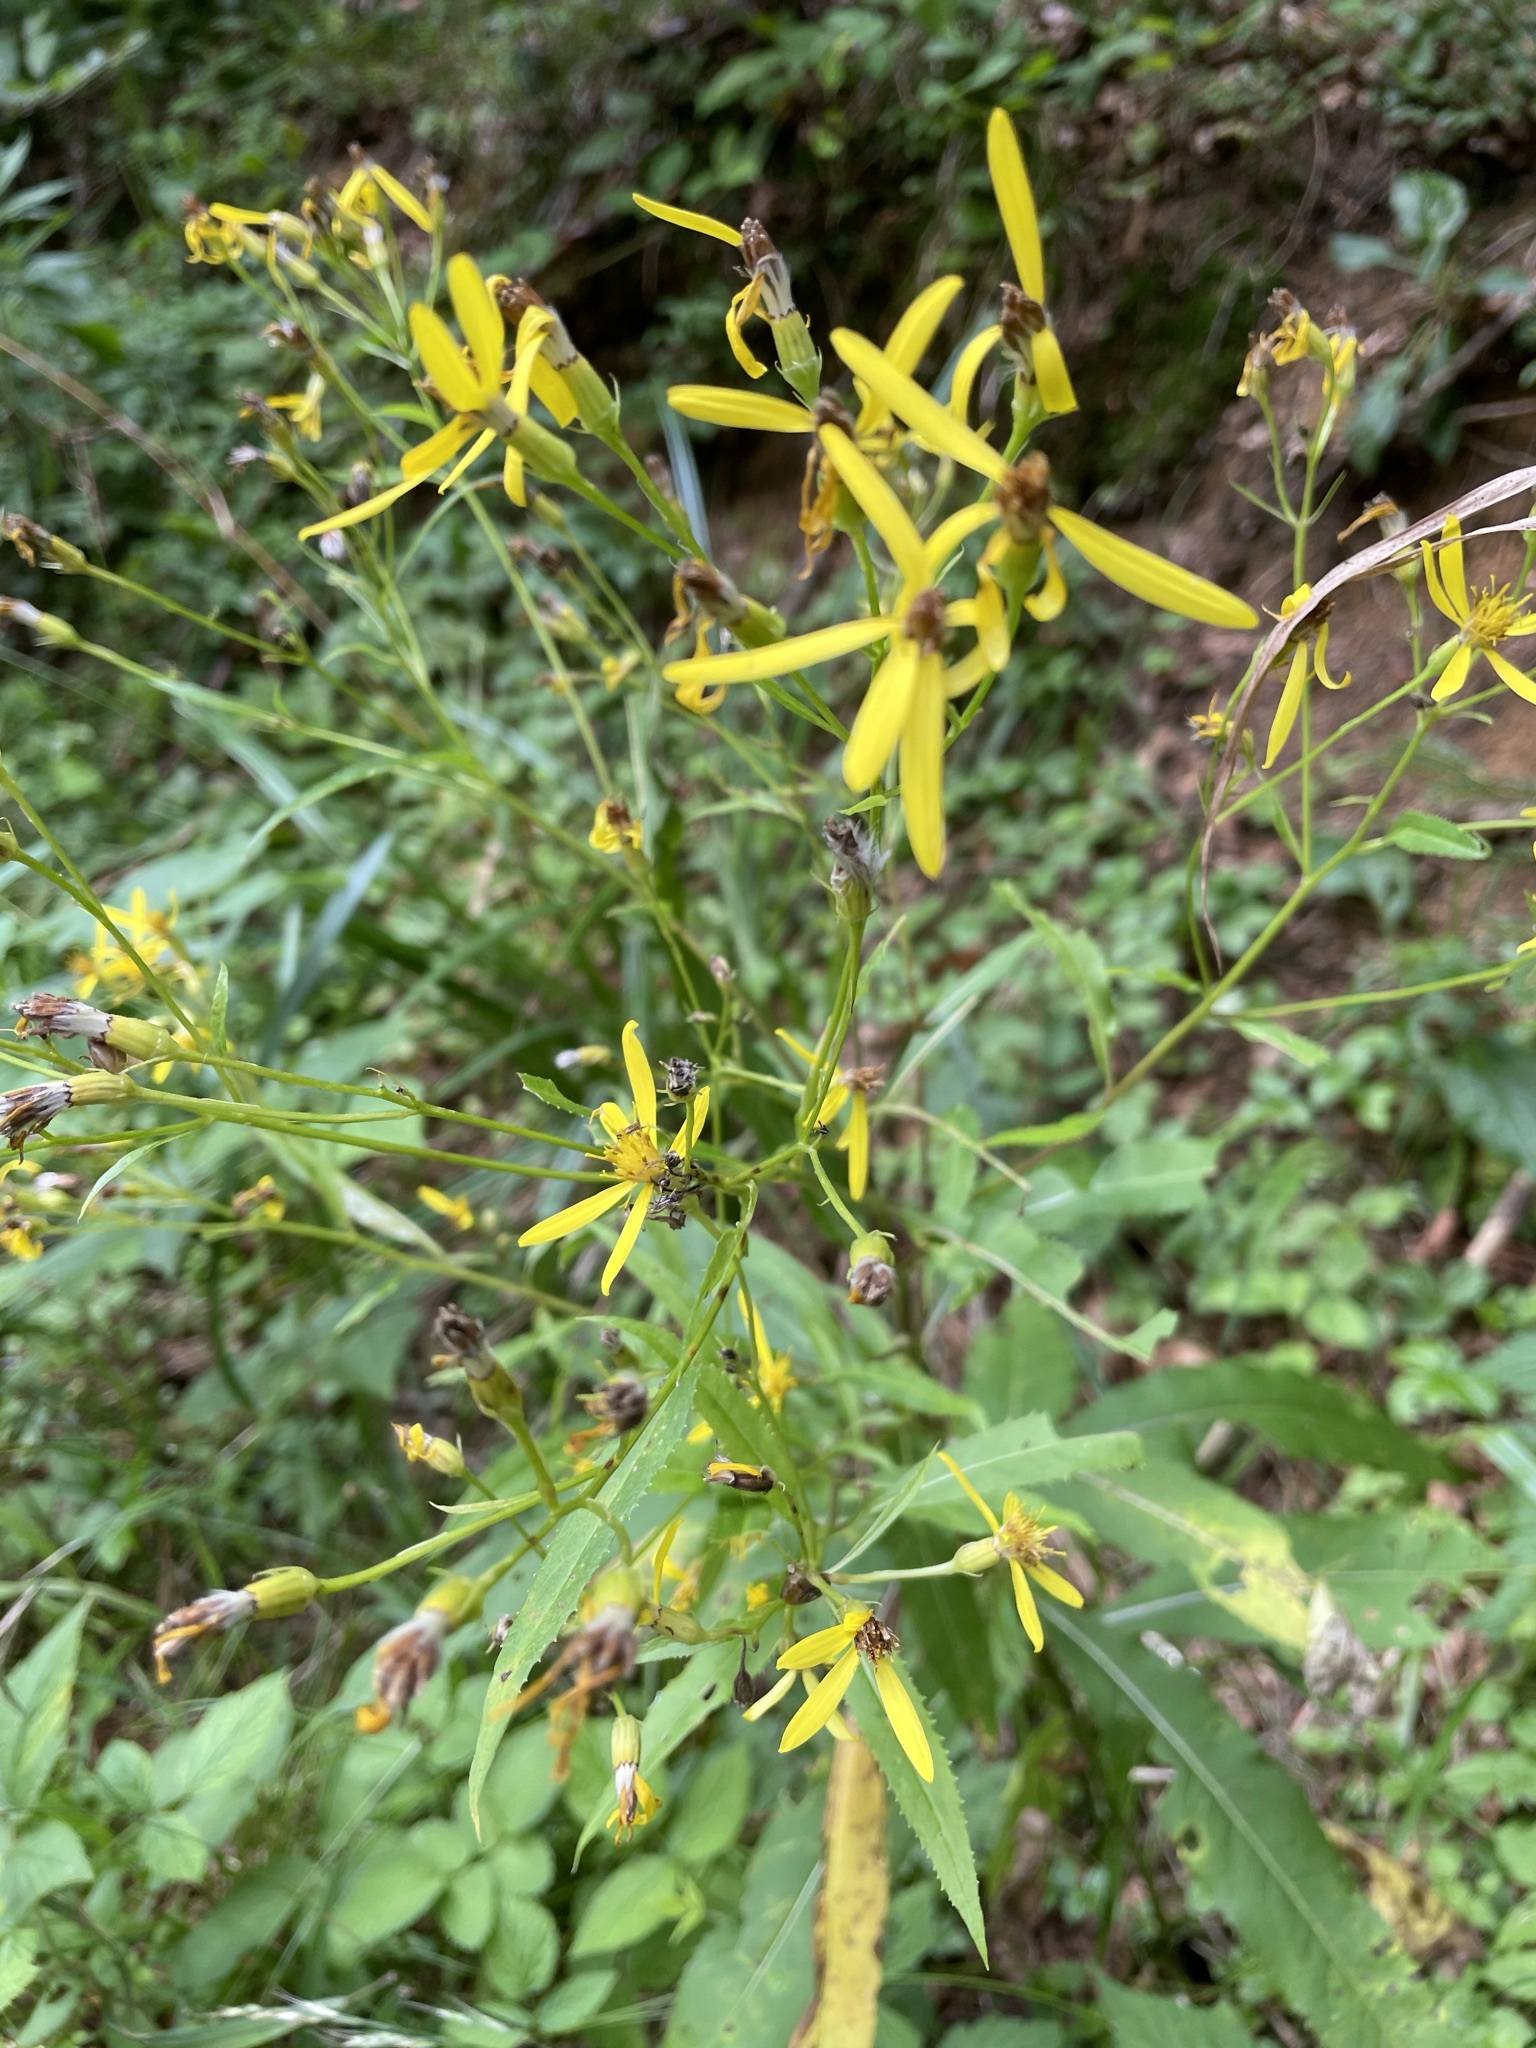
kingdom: Plantae
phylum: Tracheophyta
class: Magnoliopsida
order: Asterales
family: Asteraceae
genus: Senecio
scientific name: Senecio ovatus
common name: Wood ragwort
